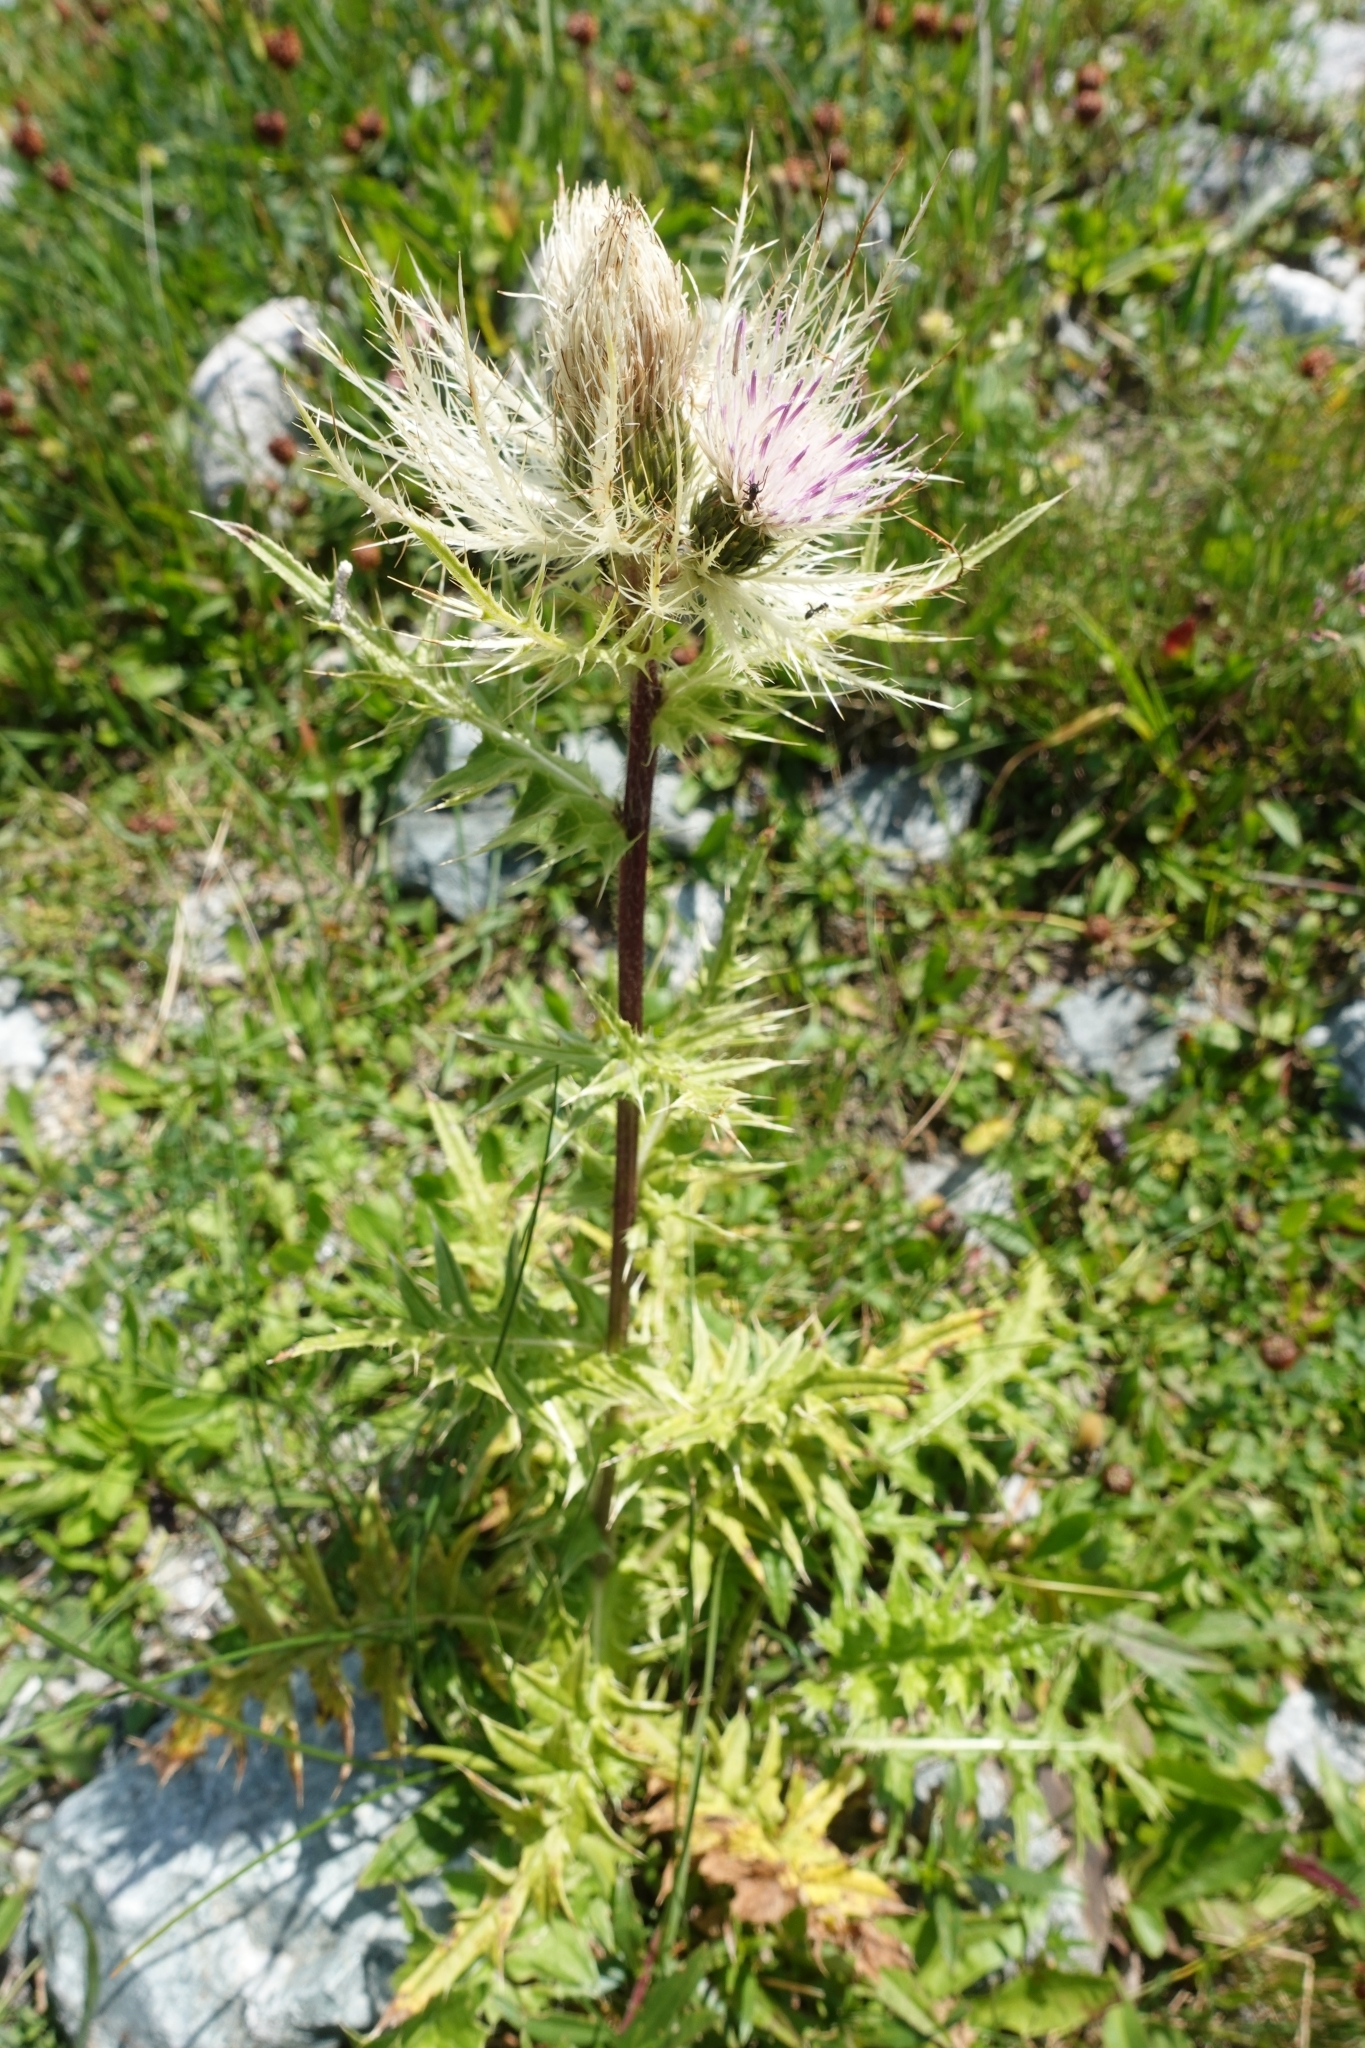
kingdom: Plantae
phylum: Tracheophyta
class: Magnoliopsida
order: Asterales
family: Asteraceae
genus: Cirsium
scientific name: Cirsium obvallatum
